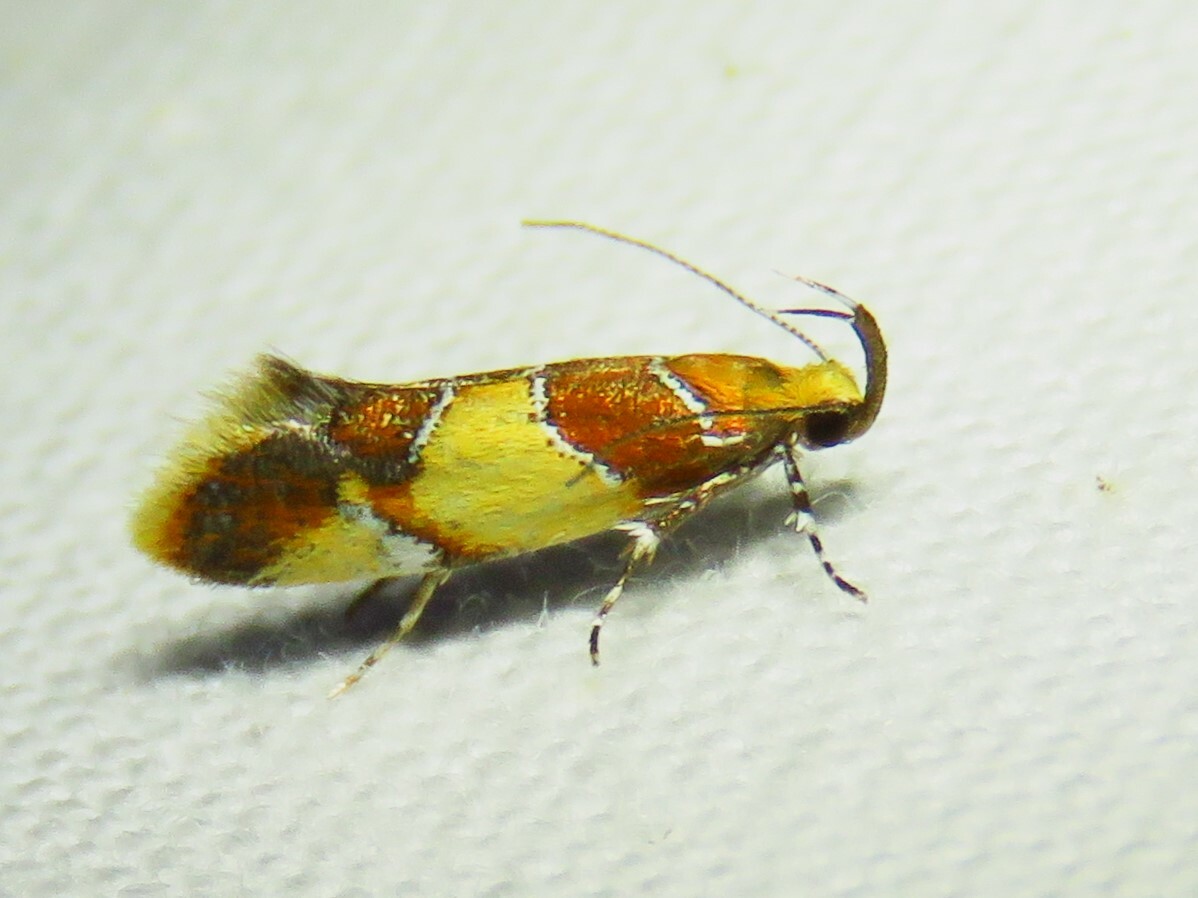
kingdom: Animalia
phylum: Arthropoda
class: Insecta
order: Lepidoptera
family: Oecophoridae
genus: Callima
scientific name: Callima argenticinctella
